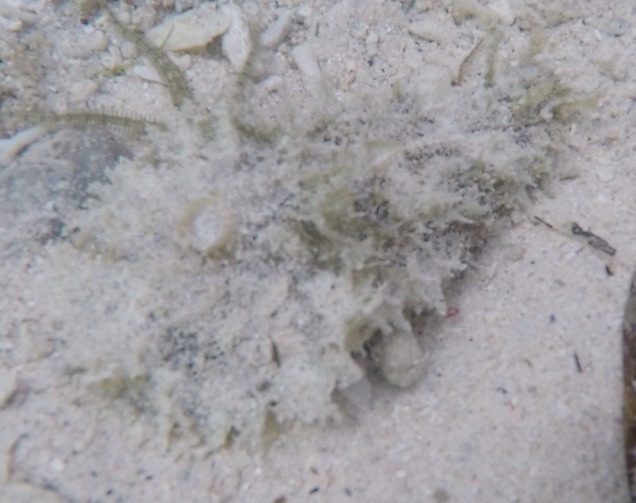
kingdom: Animalia
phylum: Mollusca
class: Gastropoda
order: Aplysiida
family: Aplysiidae
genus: Dolabella
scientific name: Dolabella auricularia
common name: Blunt-end seahare
